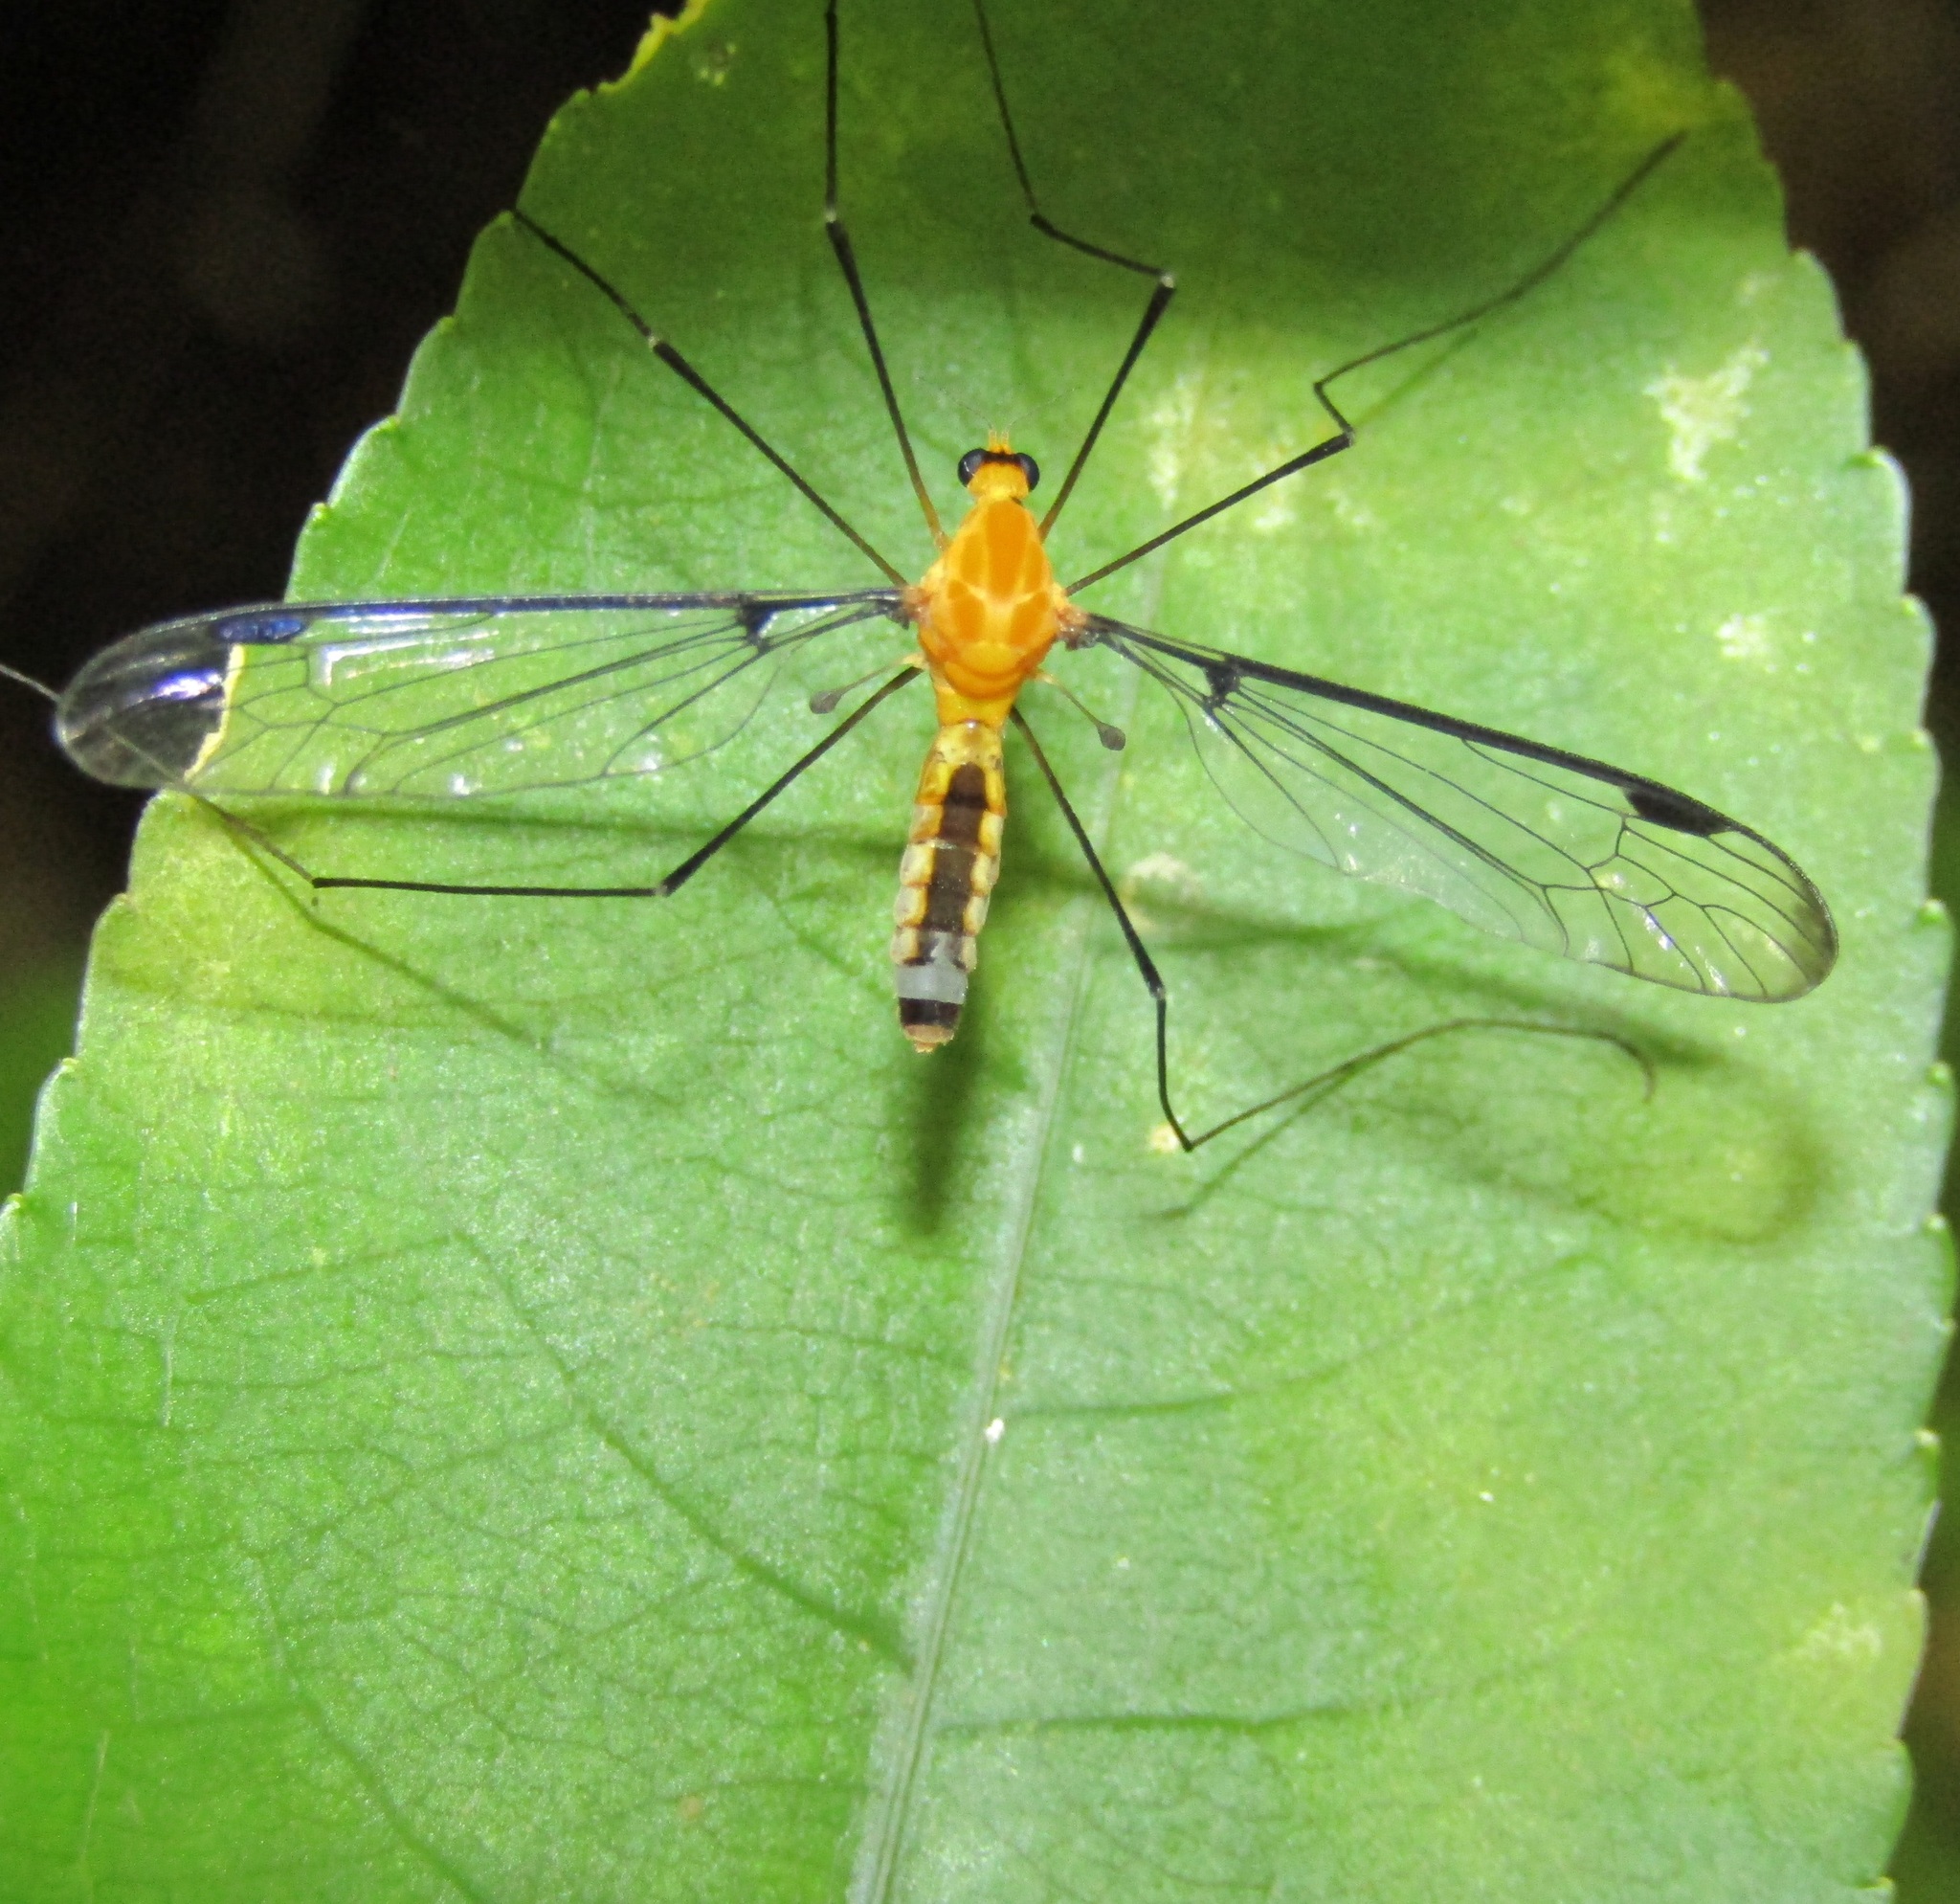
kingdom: Animalia
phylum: Arthropoda
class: Insecta
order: Diptera
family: Tipulidae
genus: Aurotipula
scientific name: Aurotipula
